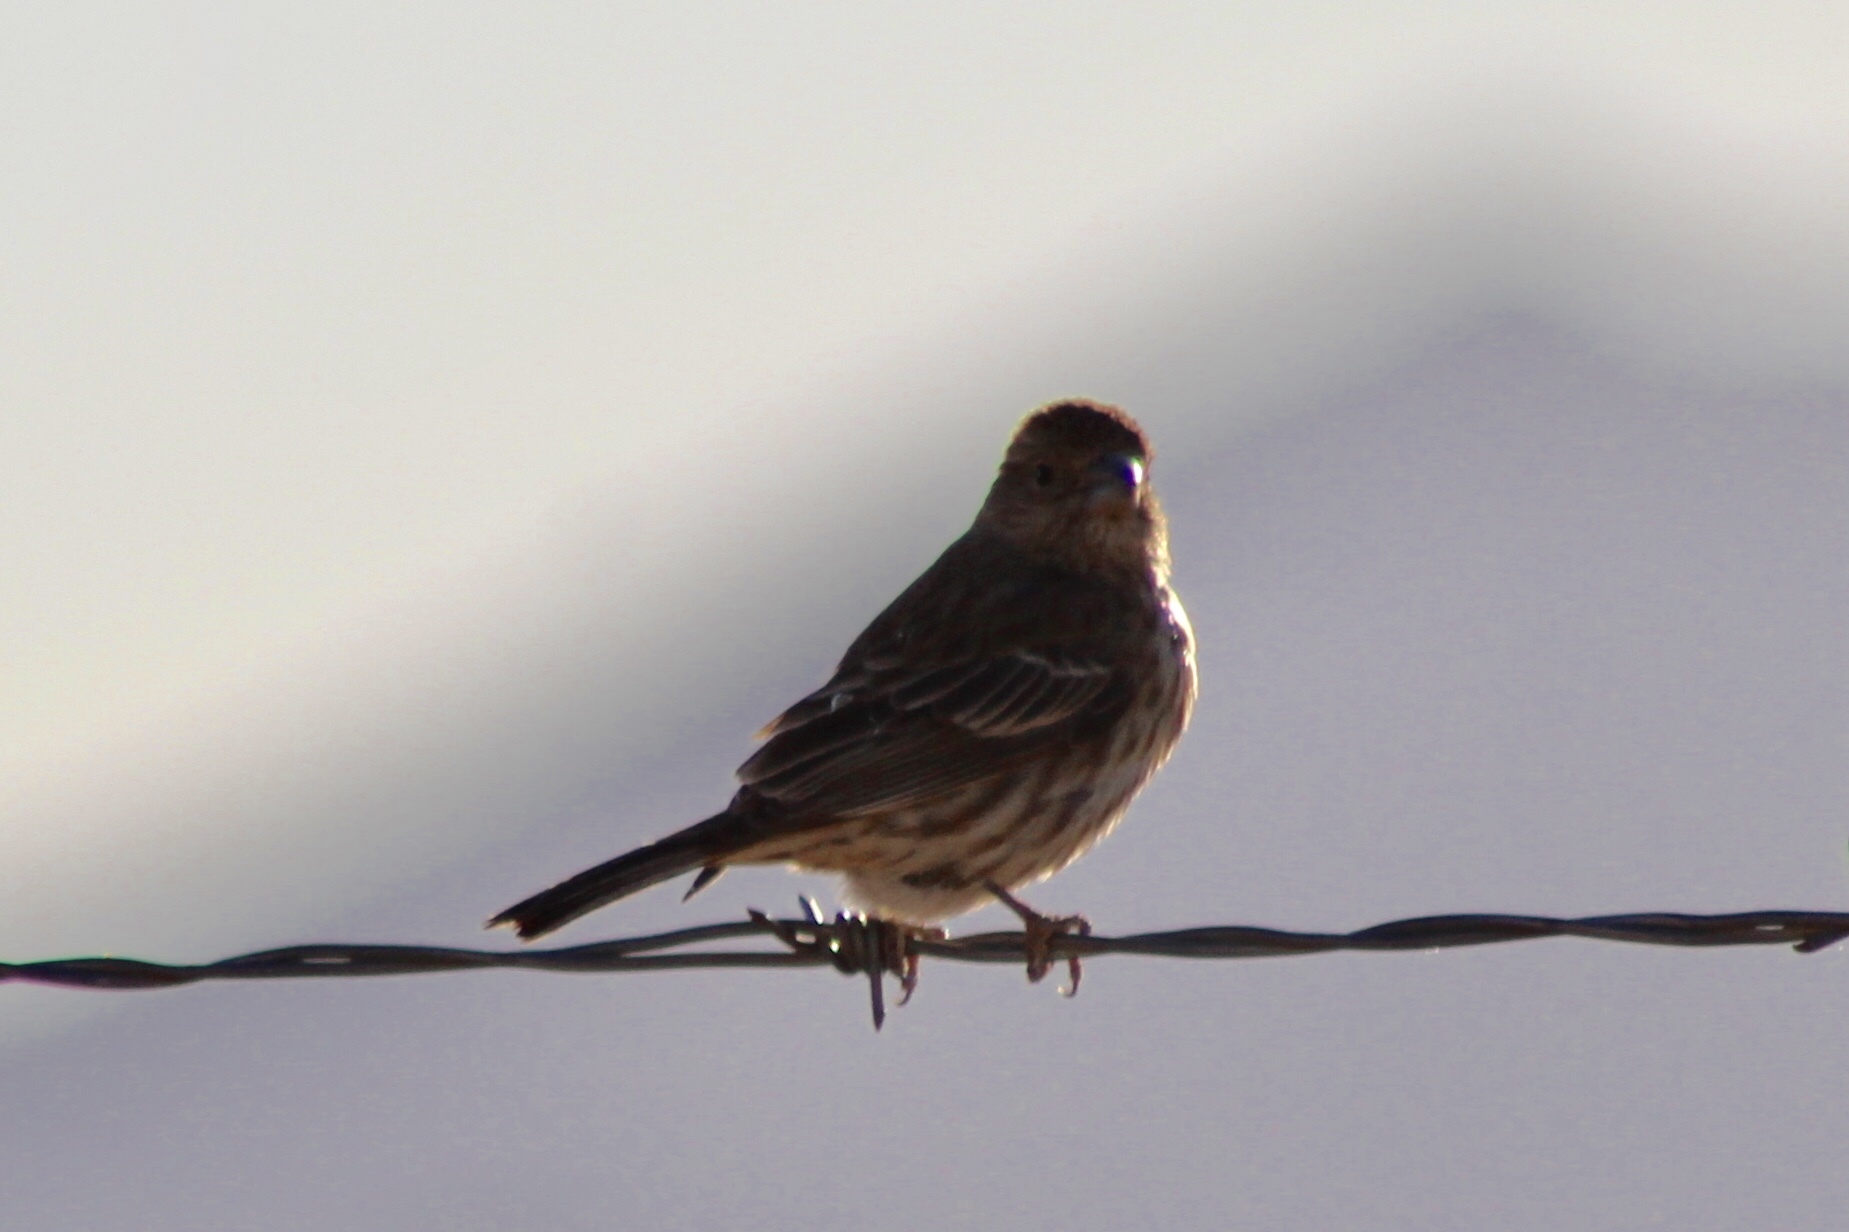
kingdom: Animalia
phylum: Chordata
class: Aves
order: Passeriformes
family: Fringillidae
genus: Haemorhous
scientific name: Haemorhous mexicanus
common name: House finch
